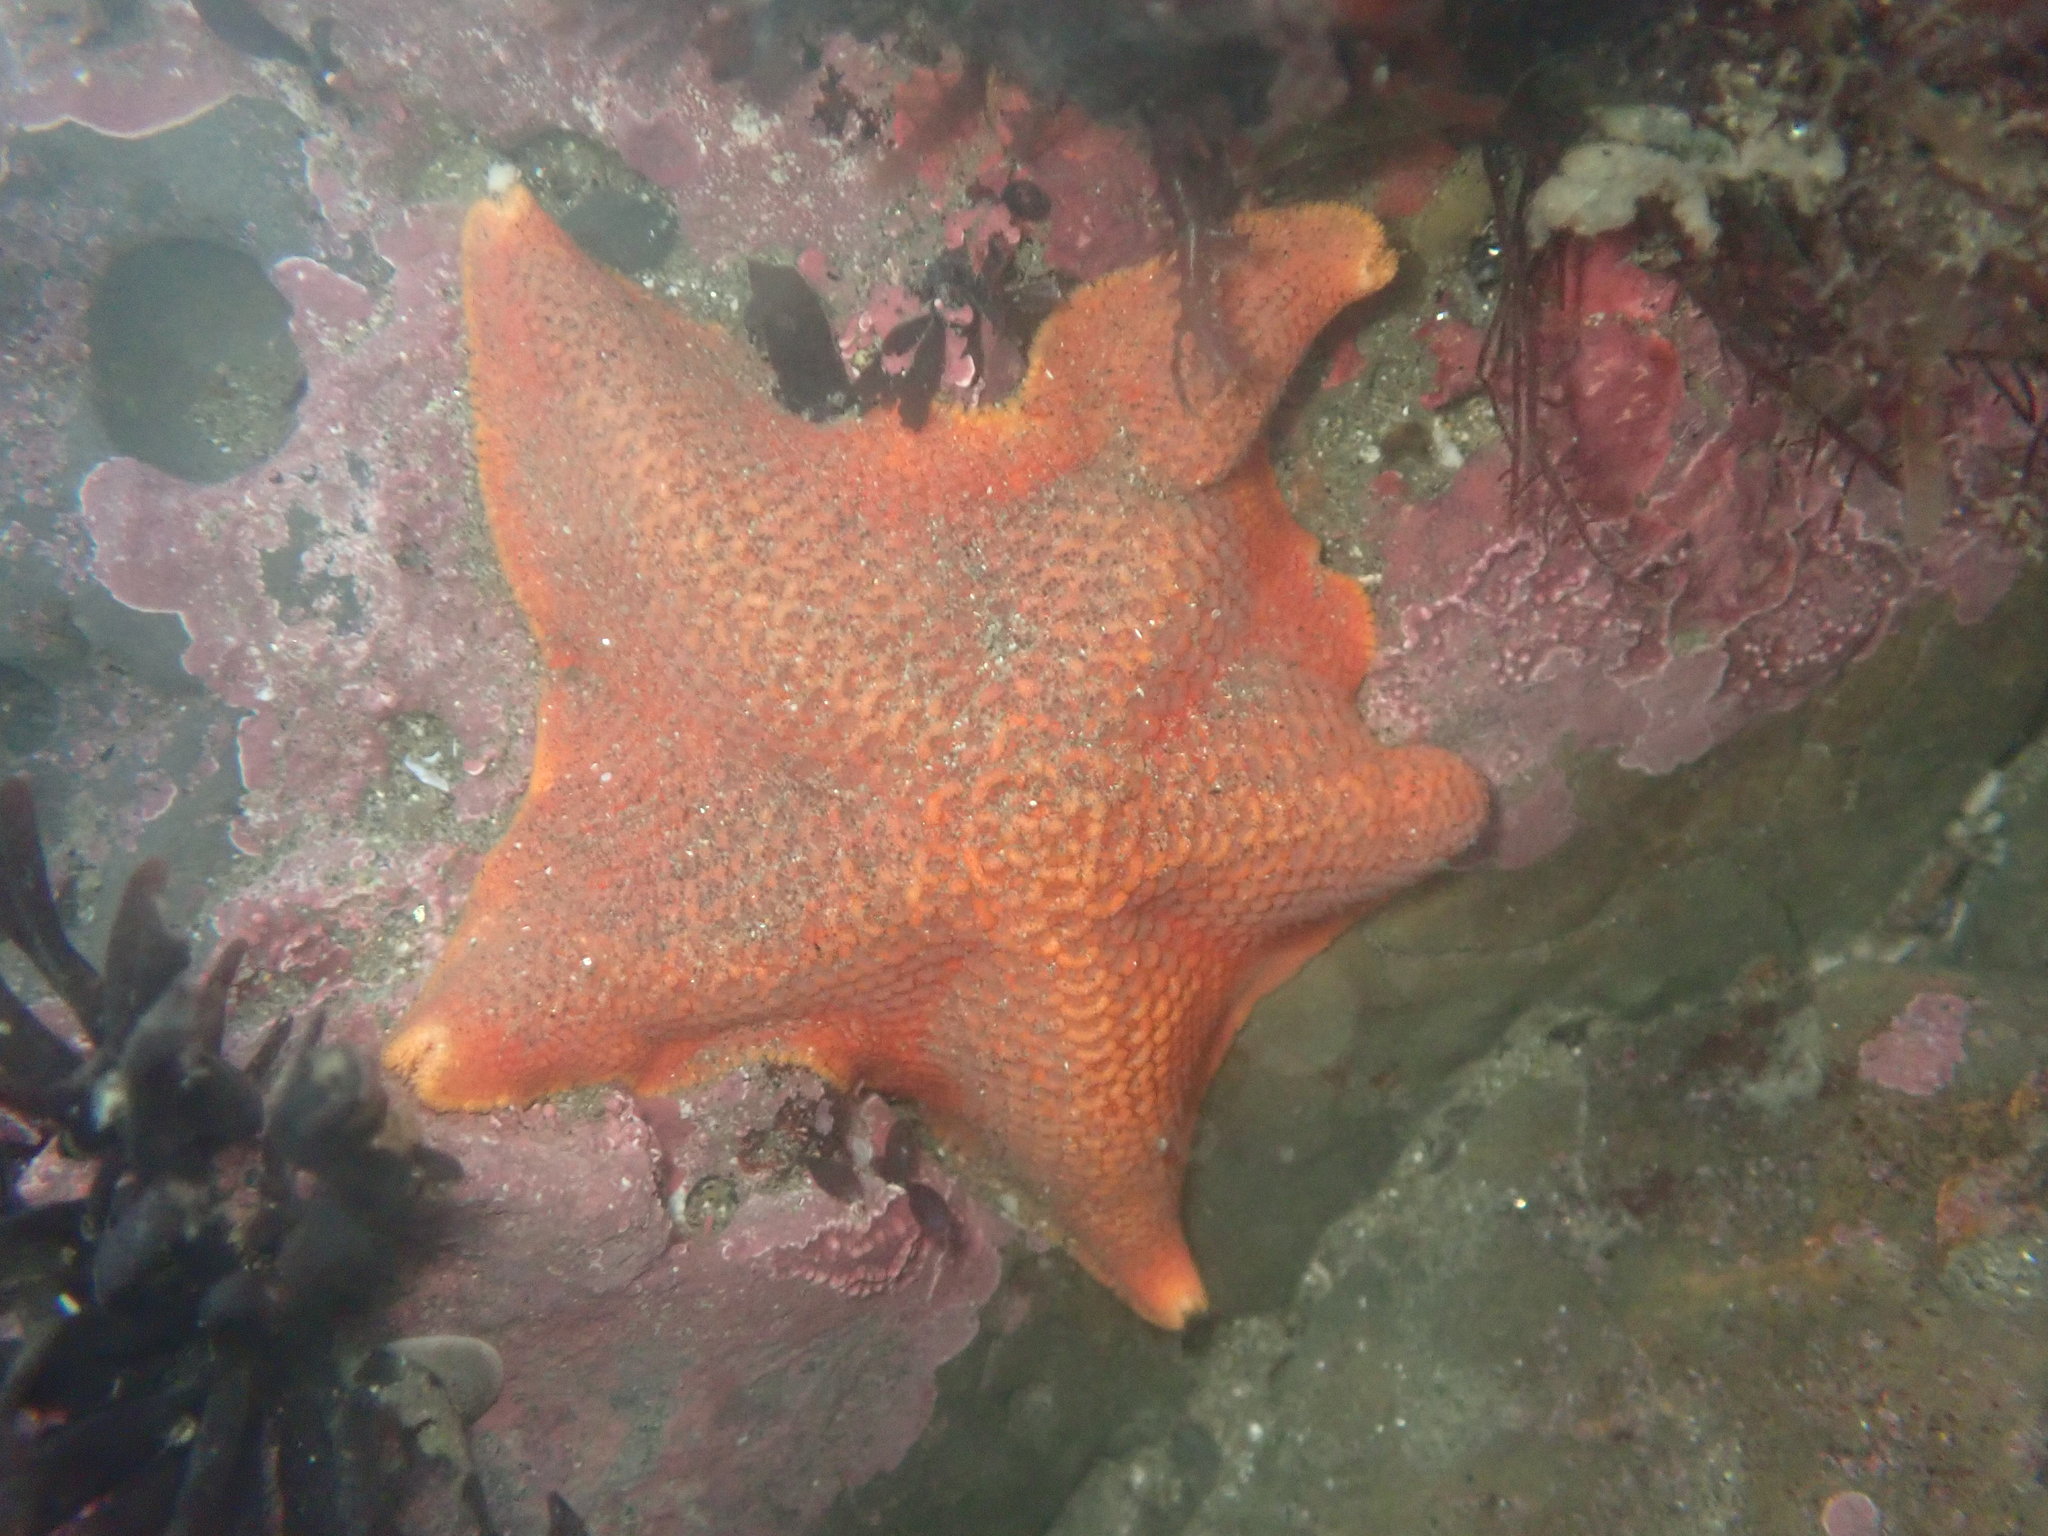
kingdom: Animalia
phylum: Echinodermata
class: Asteroidea
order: Valvatida
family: Asterinidae
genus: Patiria
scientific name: Patiria miniata
